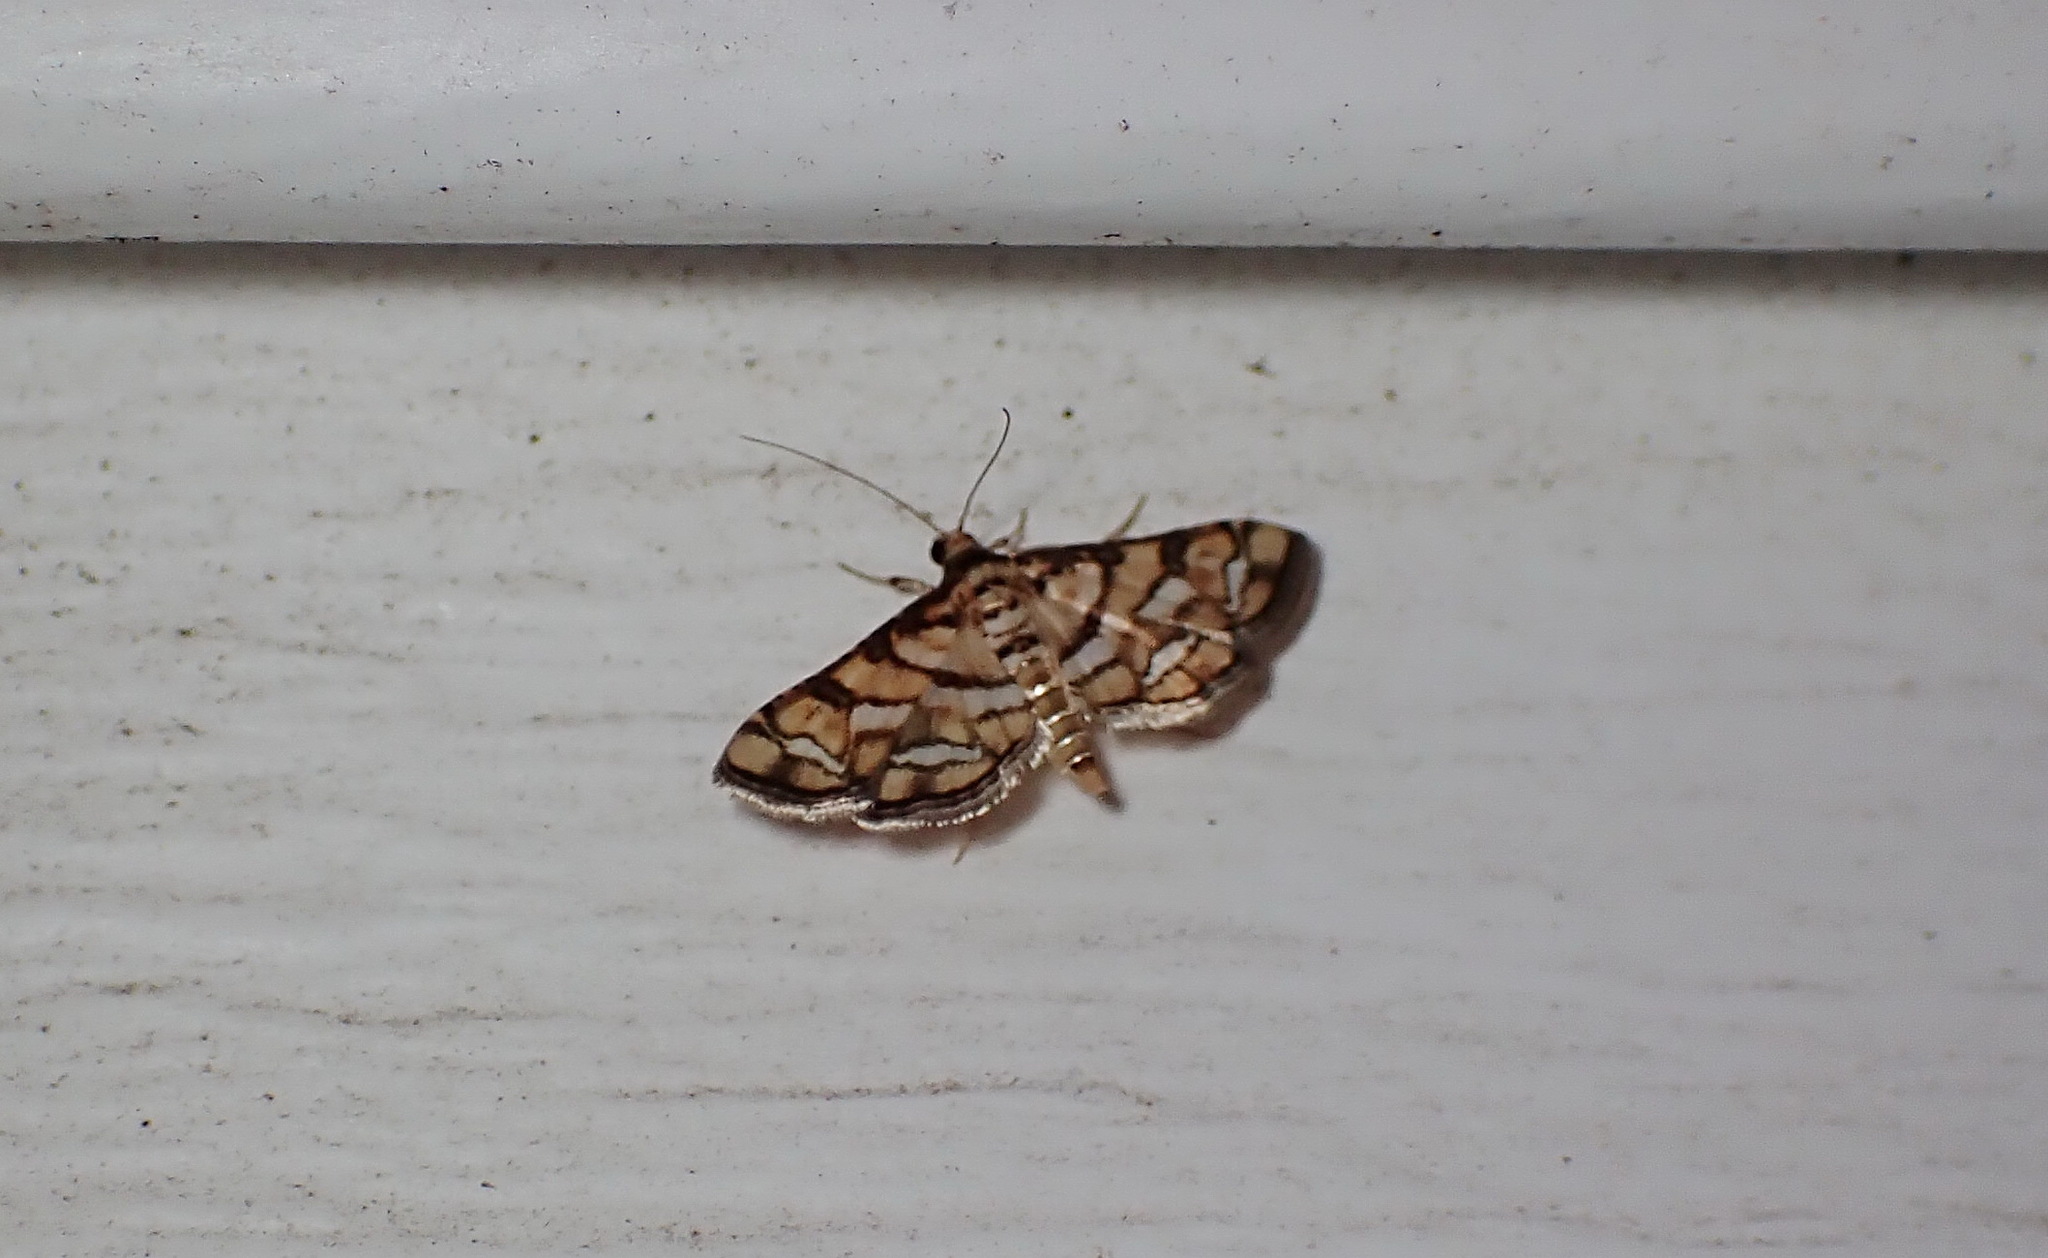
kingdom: Animalia
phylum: Arthropoda
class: Insecta
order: Lepidoptera
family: Crambidae
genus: Hileithia
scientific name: Hileithia magualis
